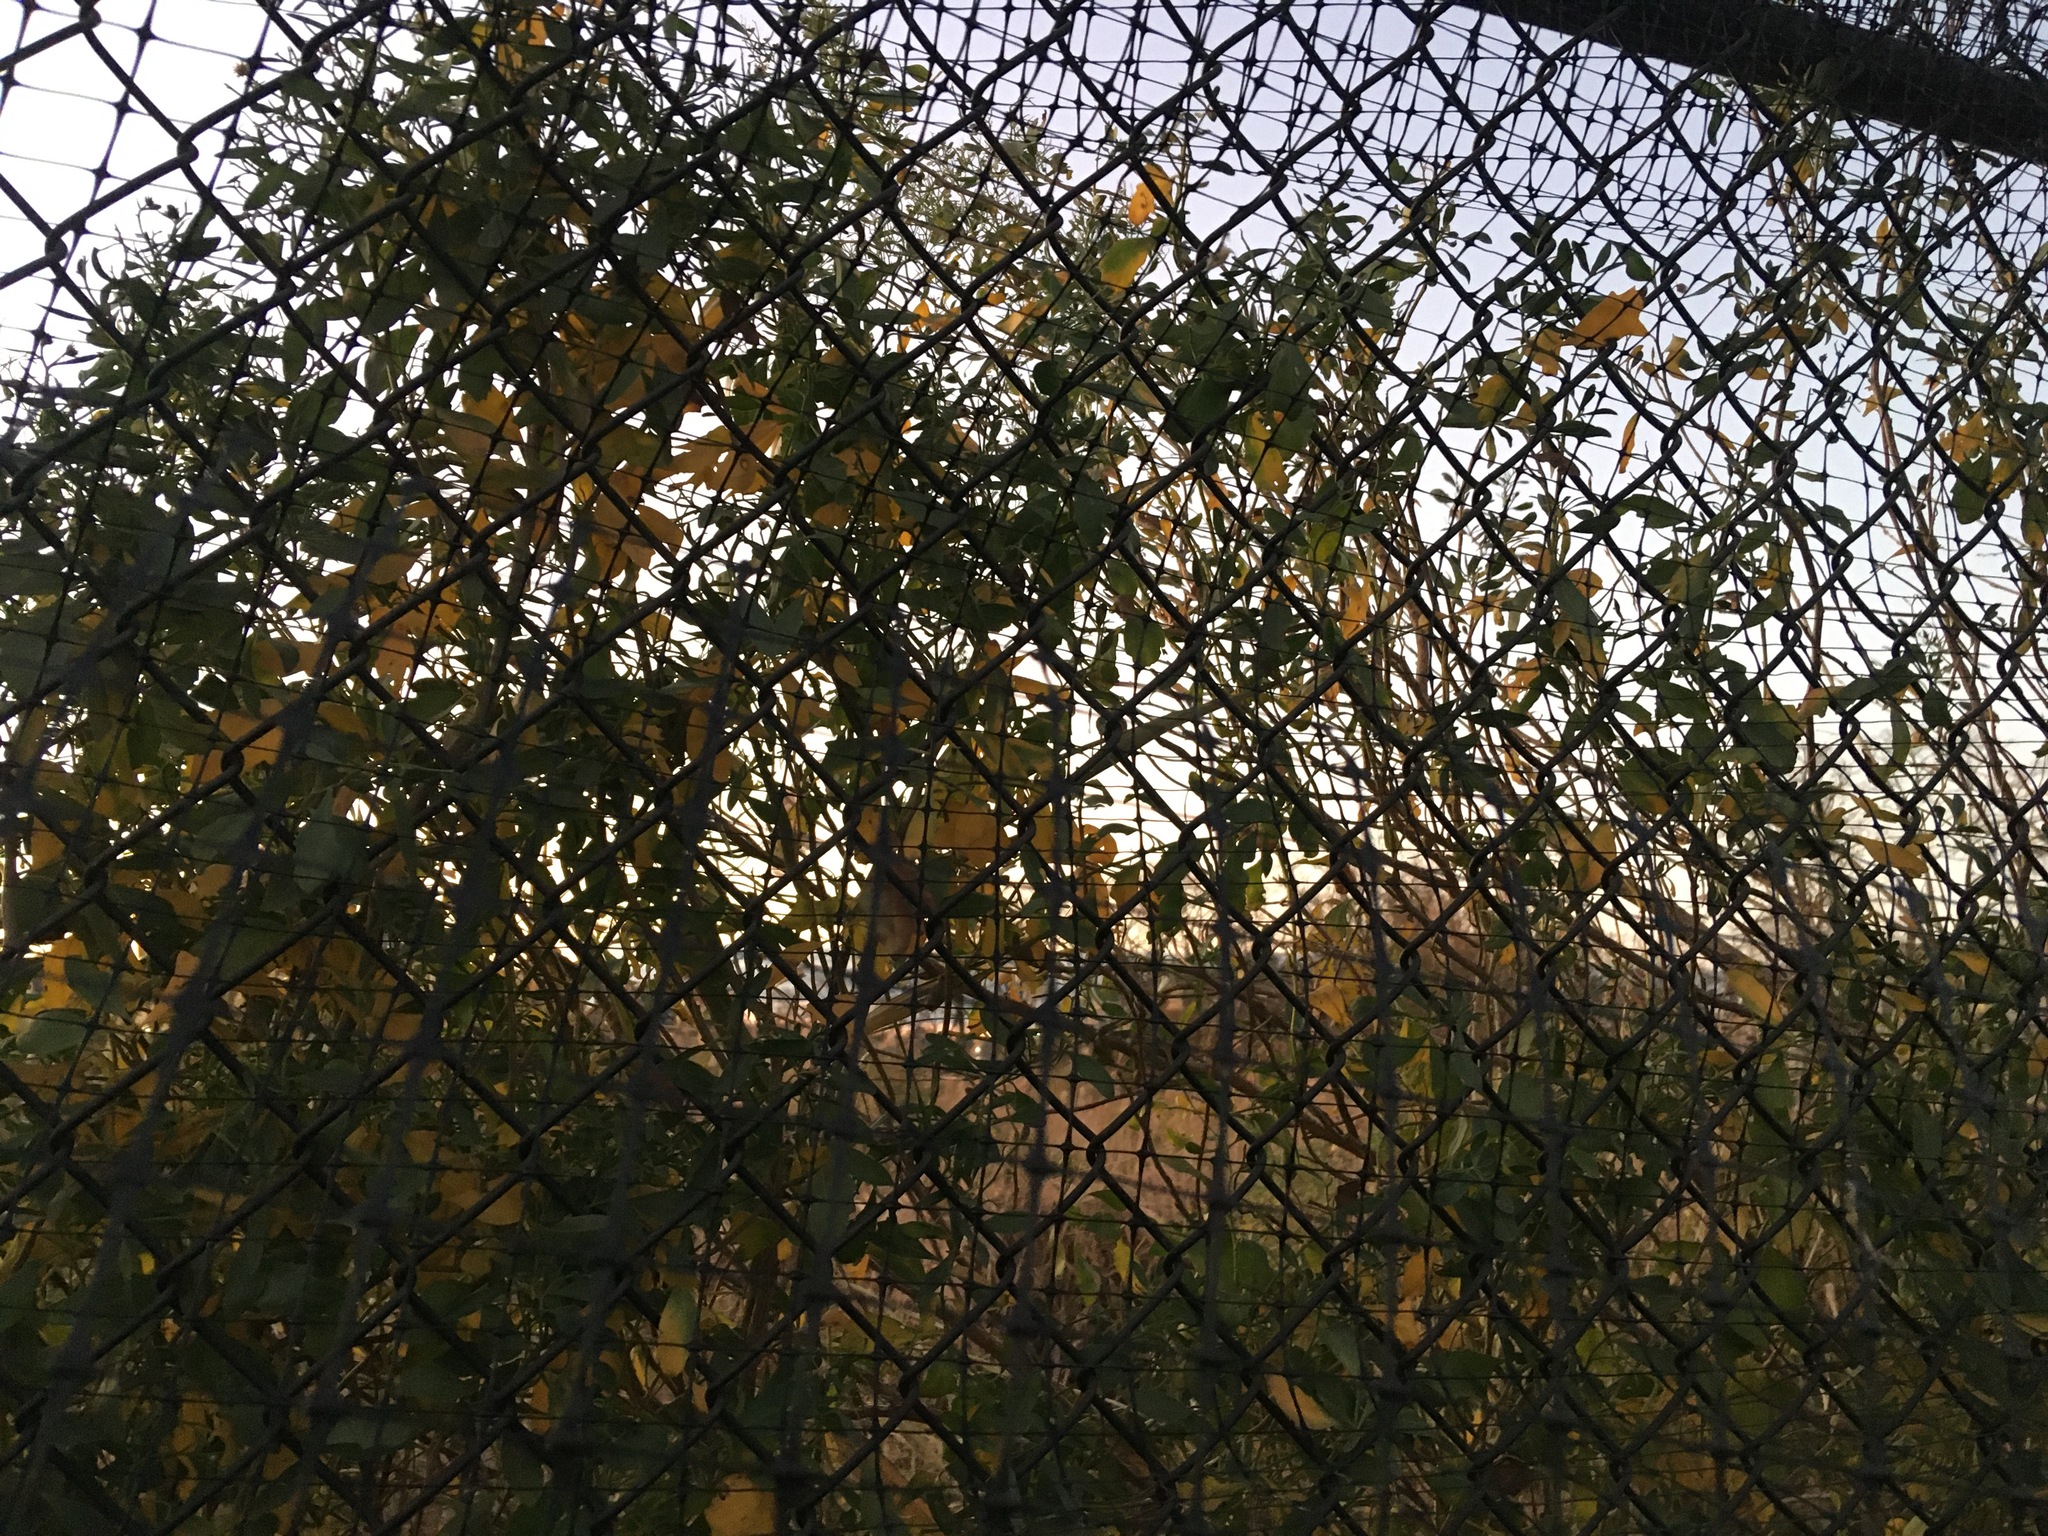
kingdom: Plantae
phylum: Tracheophyta
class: Magnoliopsida
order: Asterales
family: Asteraceae
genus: Baccharis
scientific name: Baccharis halimifolia
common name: Eastern baccharis
